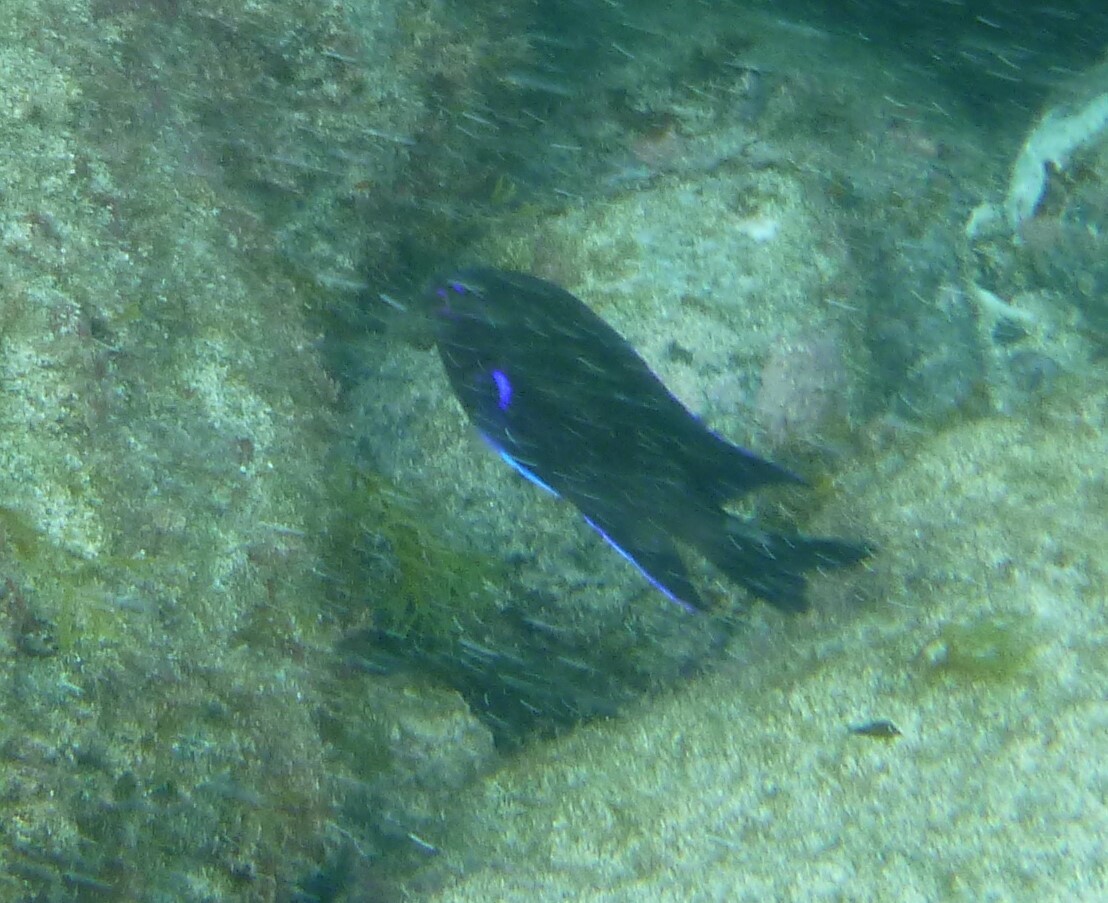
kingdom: Animalia
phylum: Chordata
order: Perciformes
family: Pomacentridae
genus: Similiparma
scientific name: Similiparma lurida
